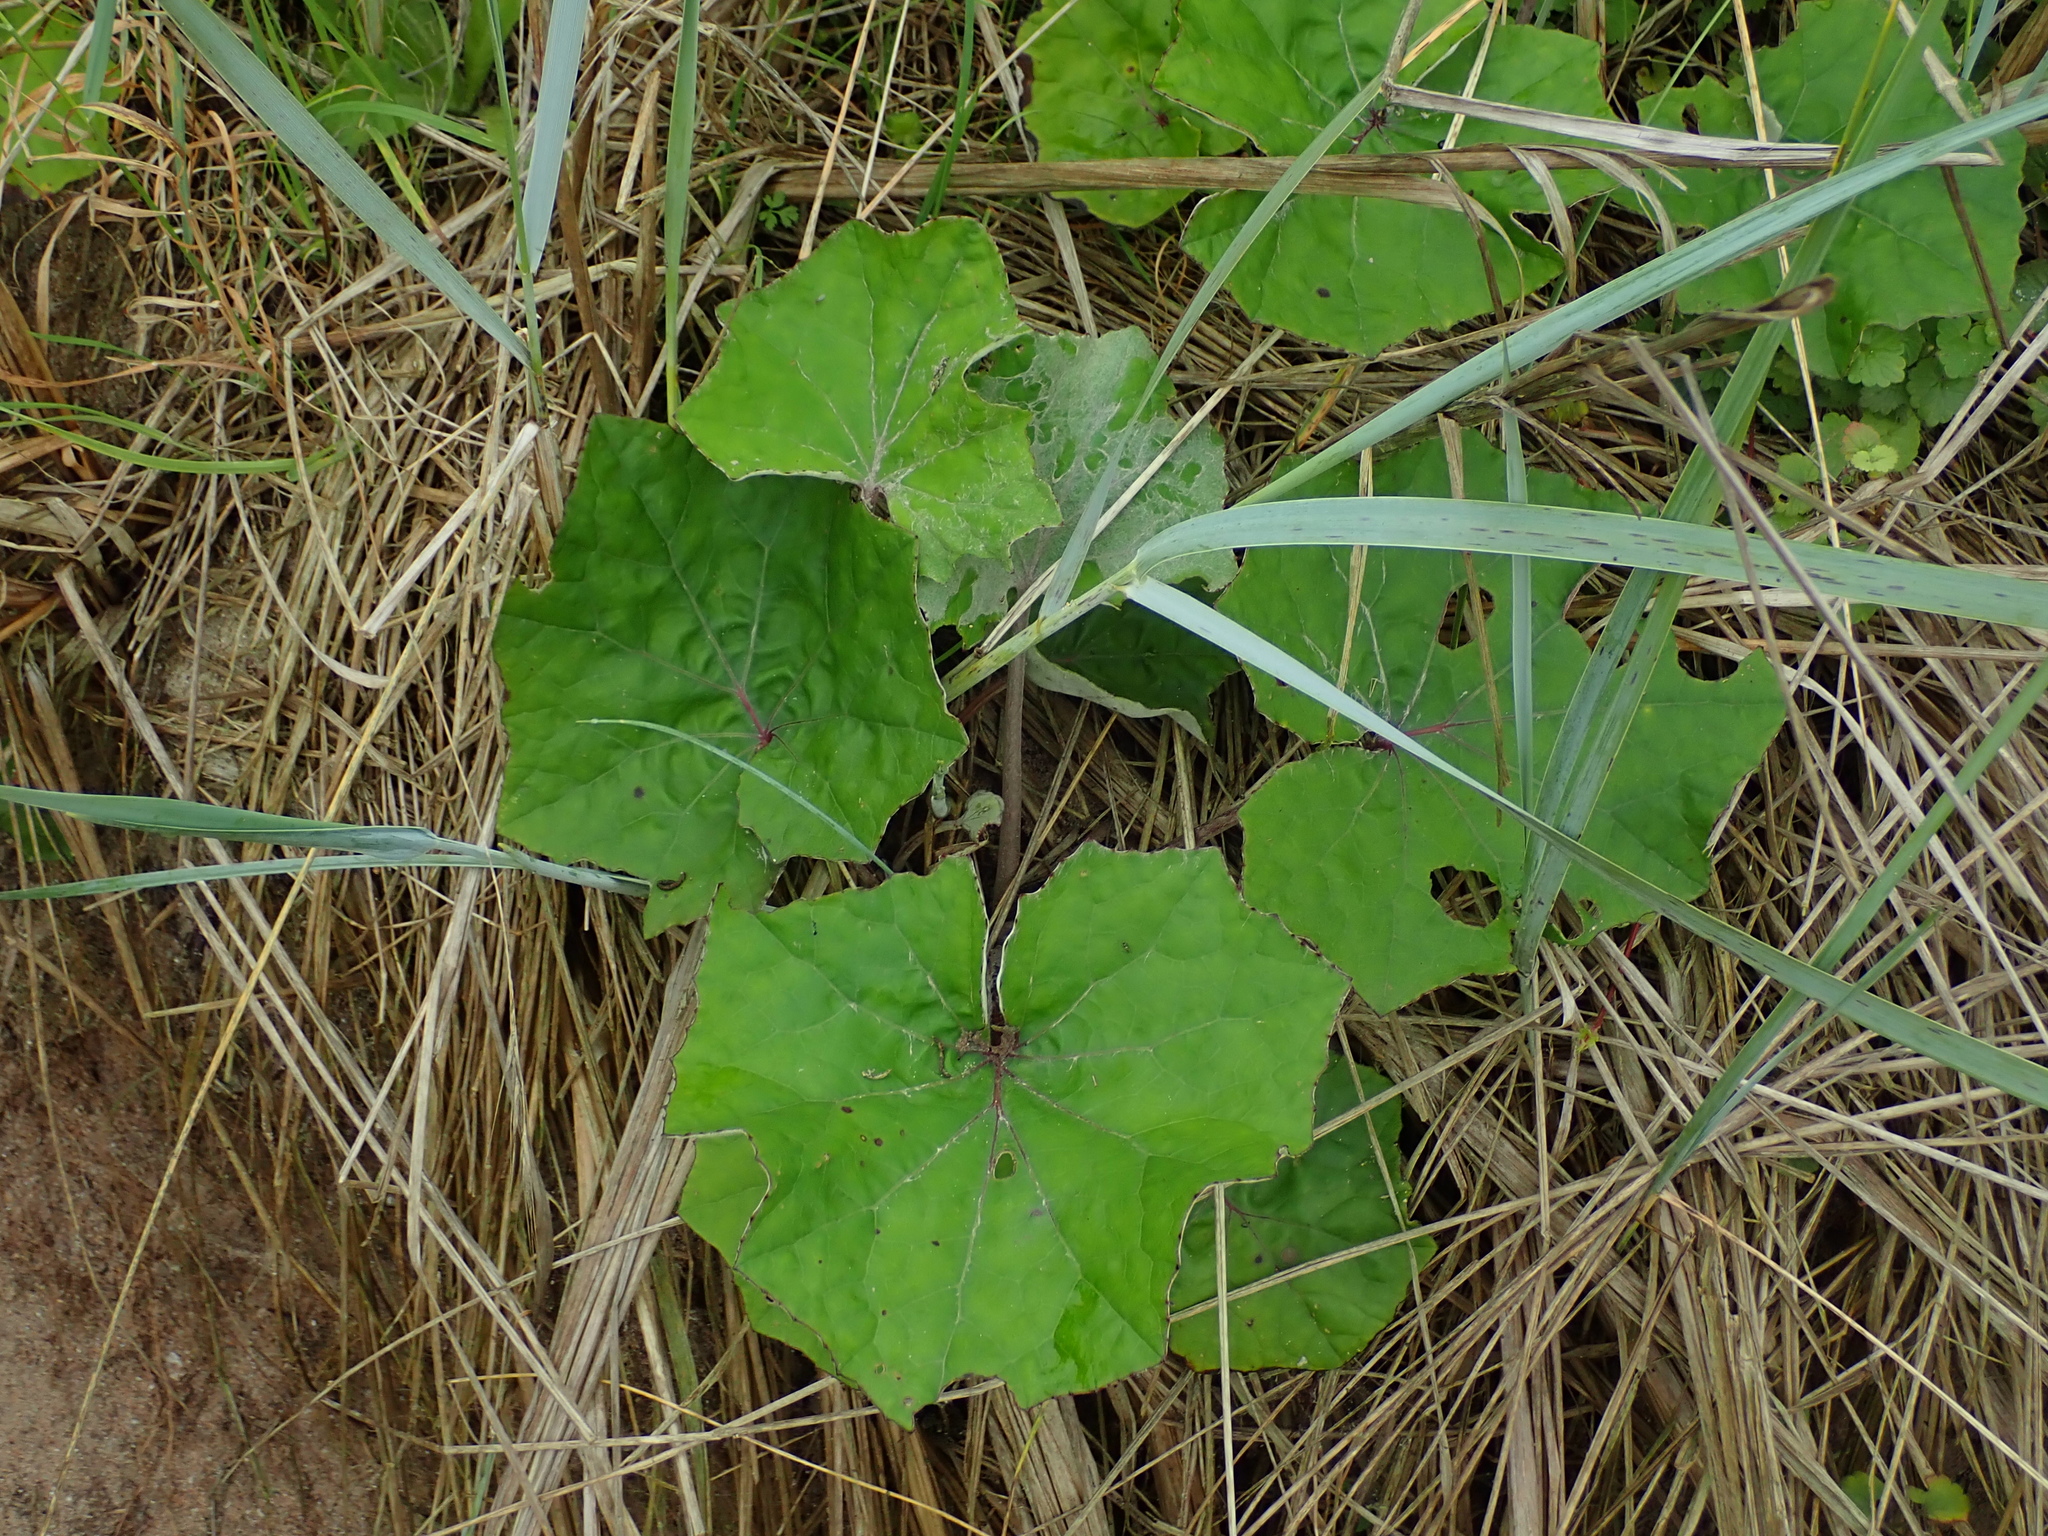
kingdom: Plantae
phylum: Tracheophyta
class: Magnoliopsida
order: Asterales
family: Asteraceae
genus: Tussilago
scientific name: Tussilago farfara
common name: Coltsfoot
